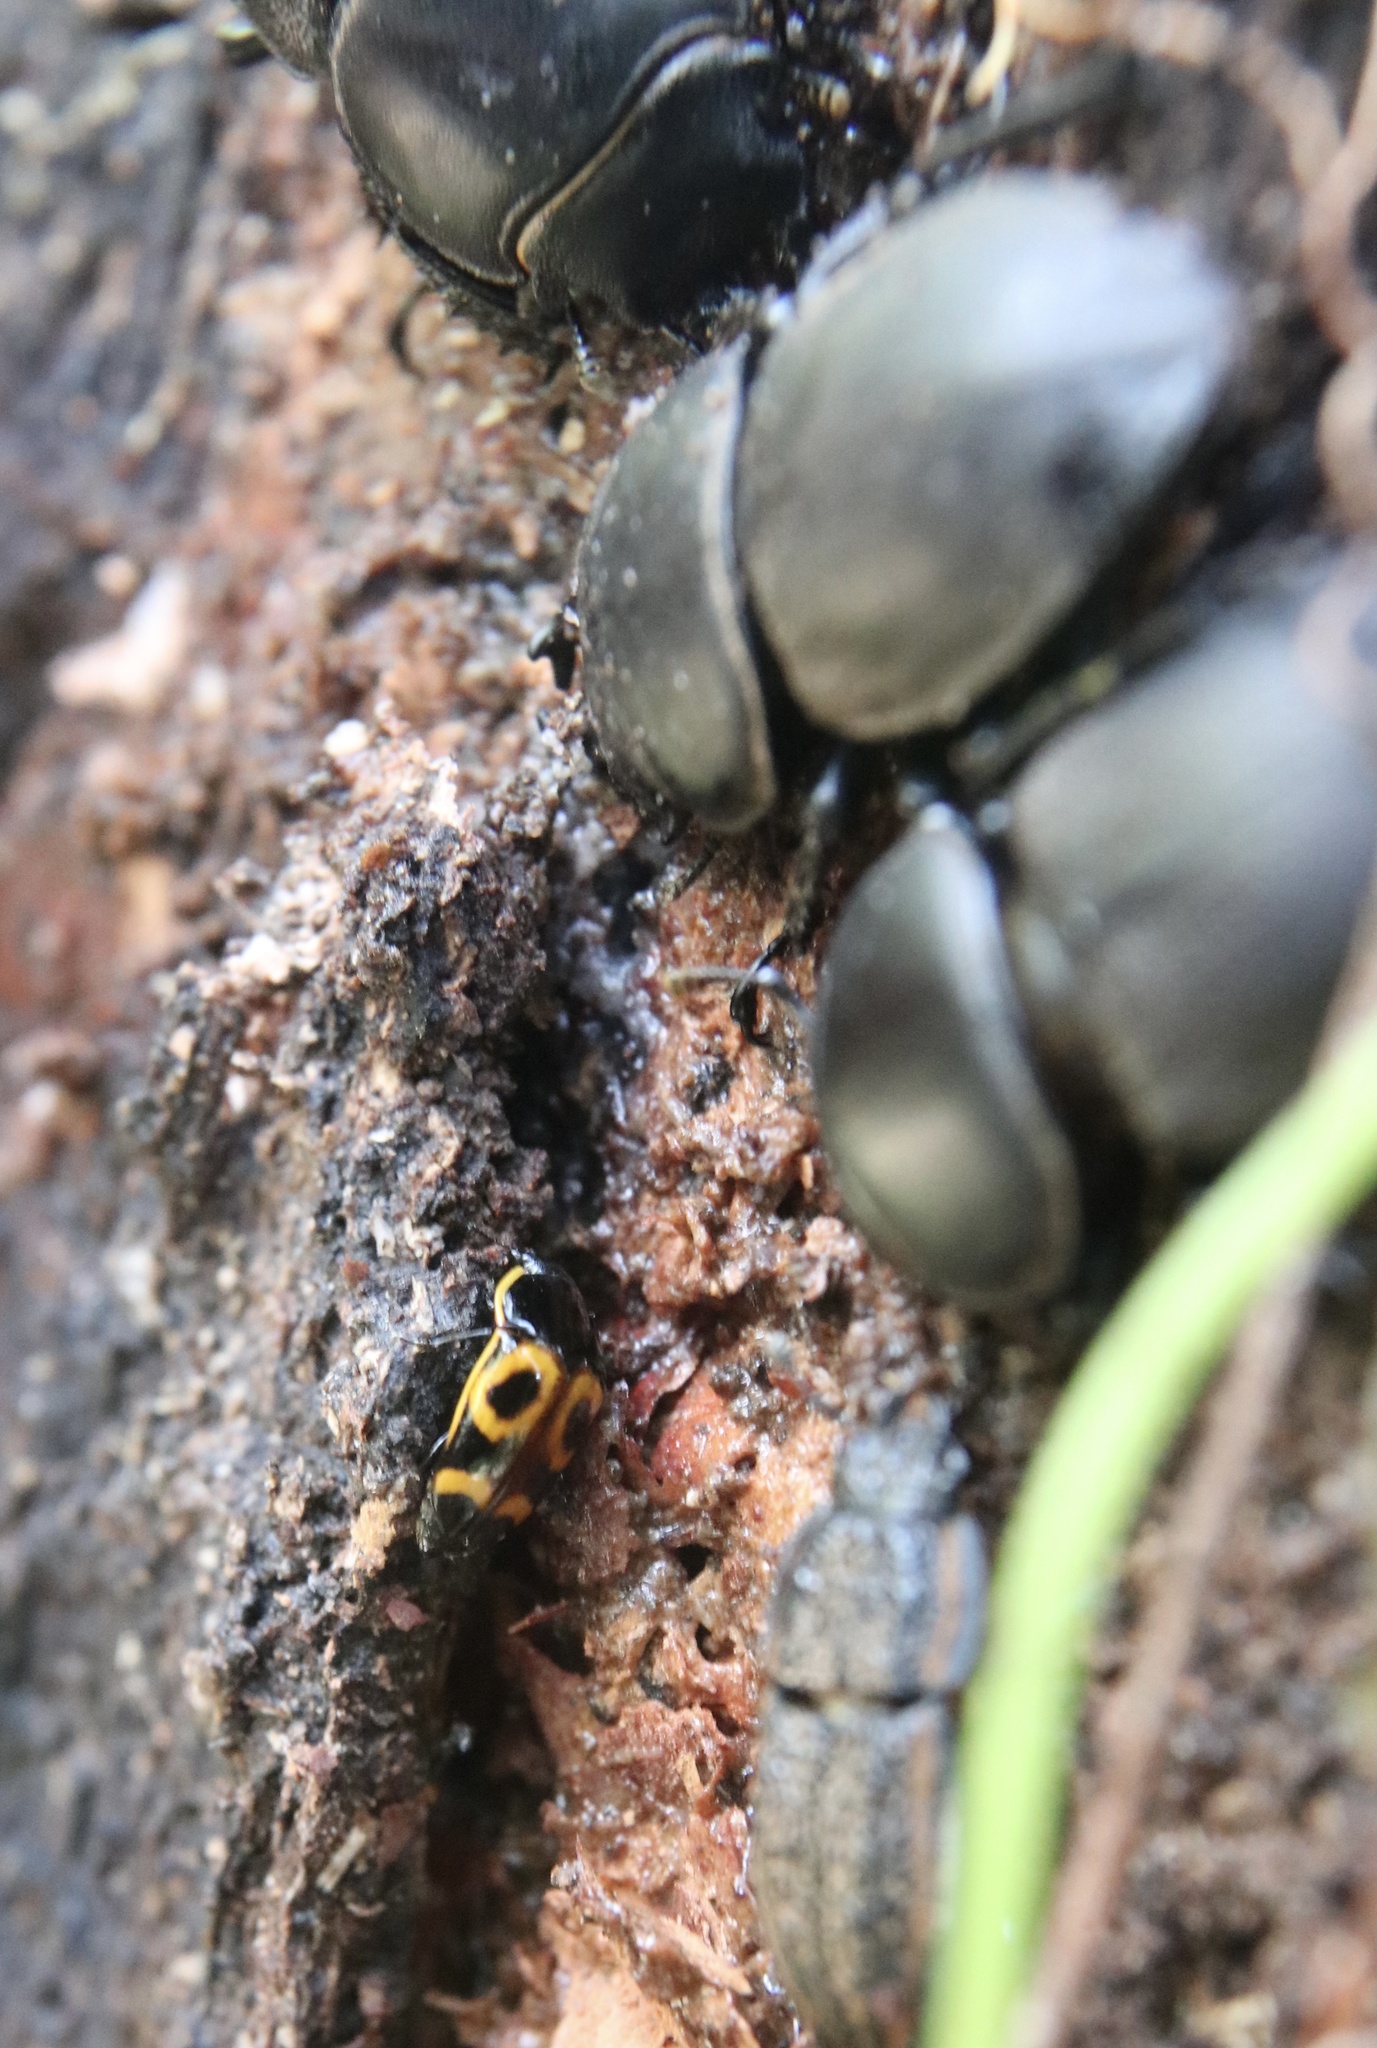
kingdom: Animalia
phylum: Arthropoda
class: Insecta
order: Coleoptera
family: Nitidulidae
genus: Lioschema
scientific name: Lioschema
